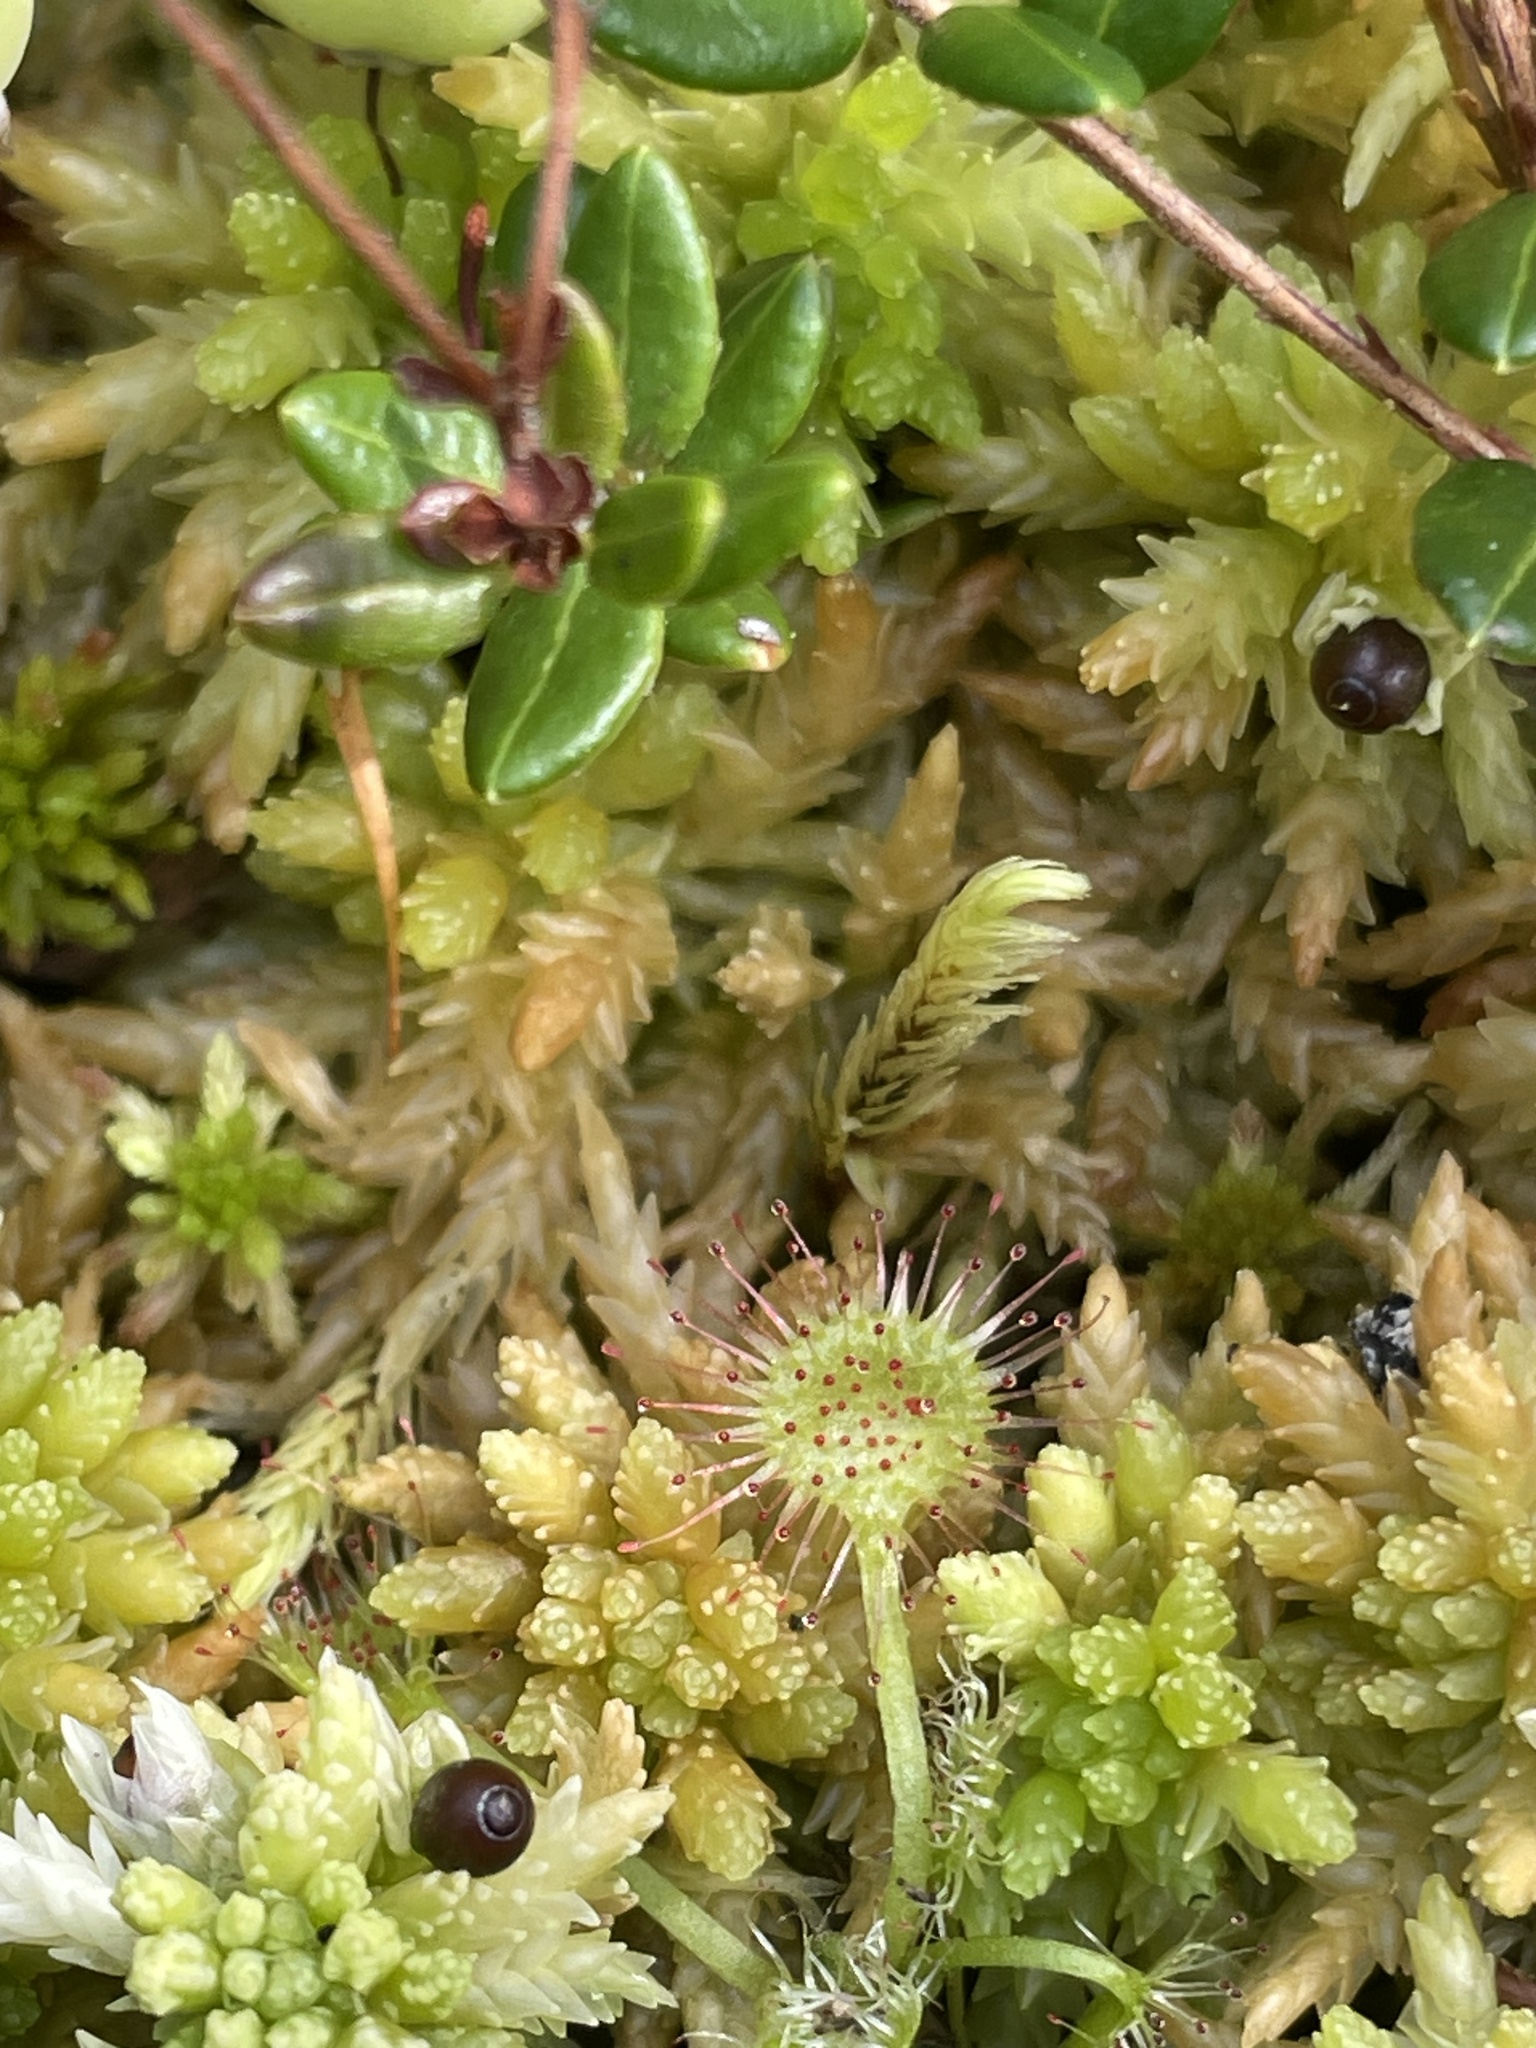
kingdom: Plantae
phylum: Tracheophyta
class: Magnoliopsida
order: Caryophyllales
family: Droseraceae
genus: Drosera
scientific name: Drosera rotundifolia
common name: Round-leaved sundew
